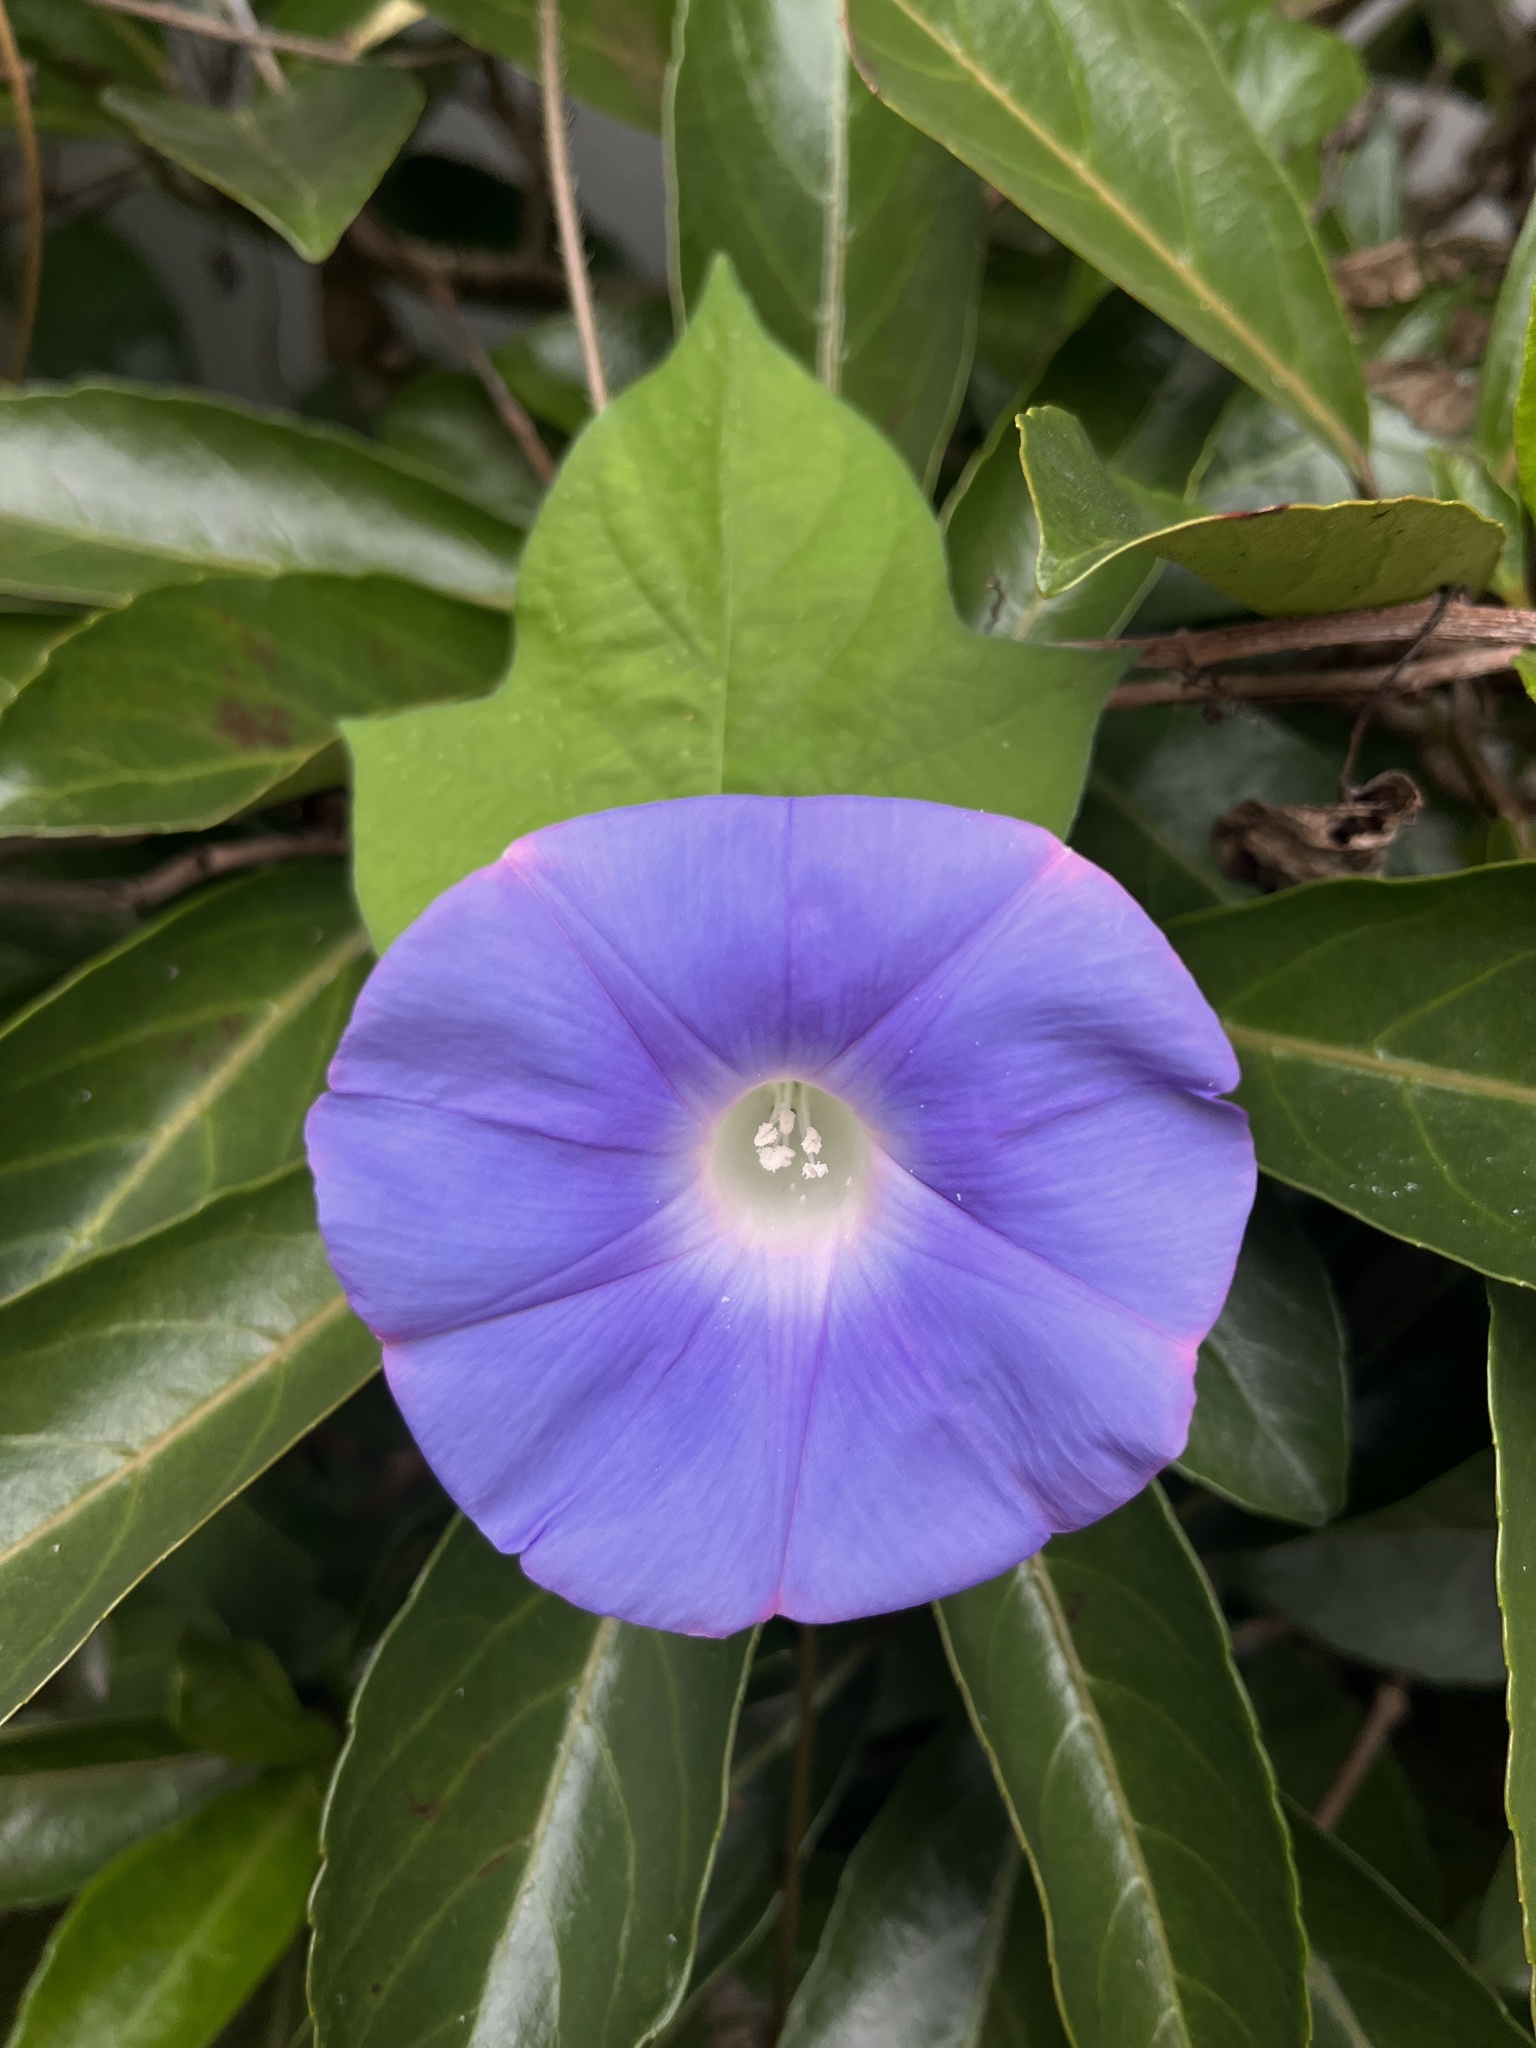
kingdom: Plantae
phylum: Tracheophyta
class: Magnoliopsida
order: Solanales
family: Convolvulaceae
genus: Ipomoea
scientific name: Ipomoea nil
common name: Japanese morning-glory
